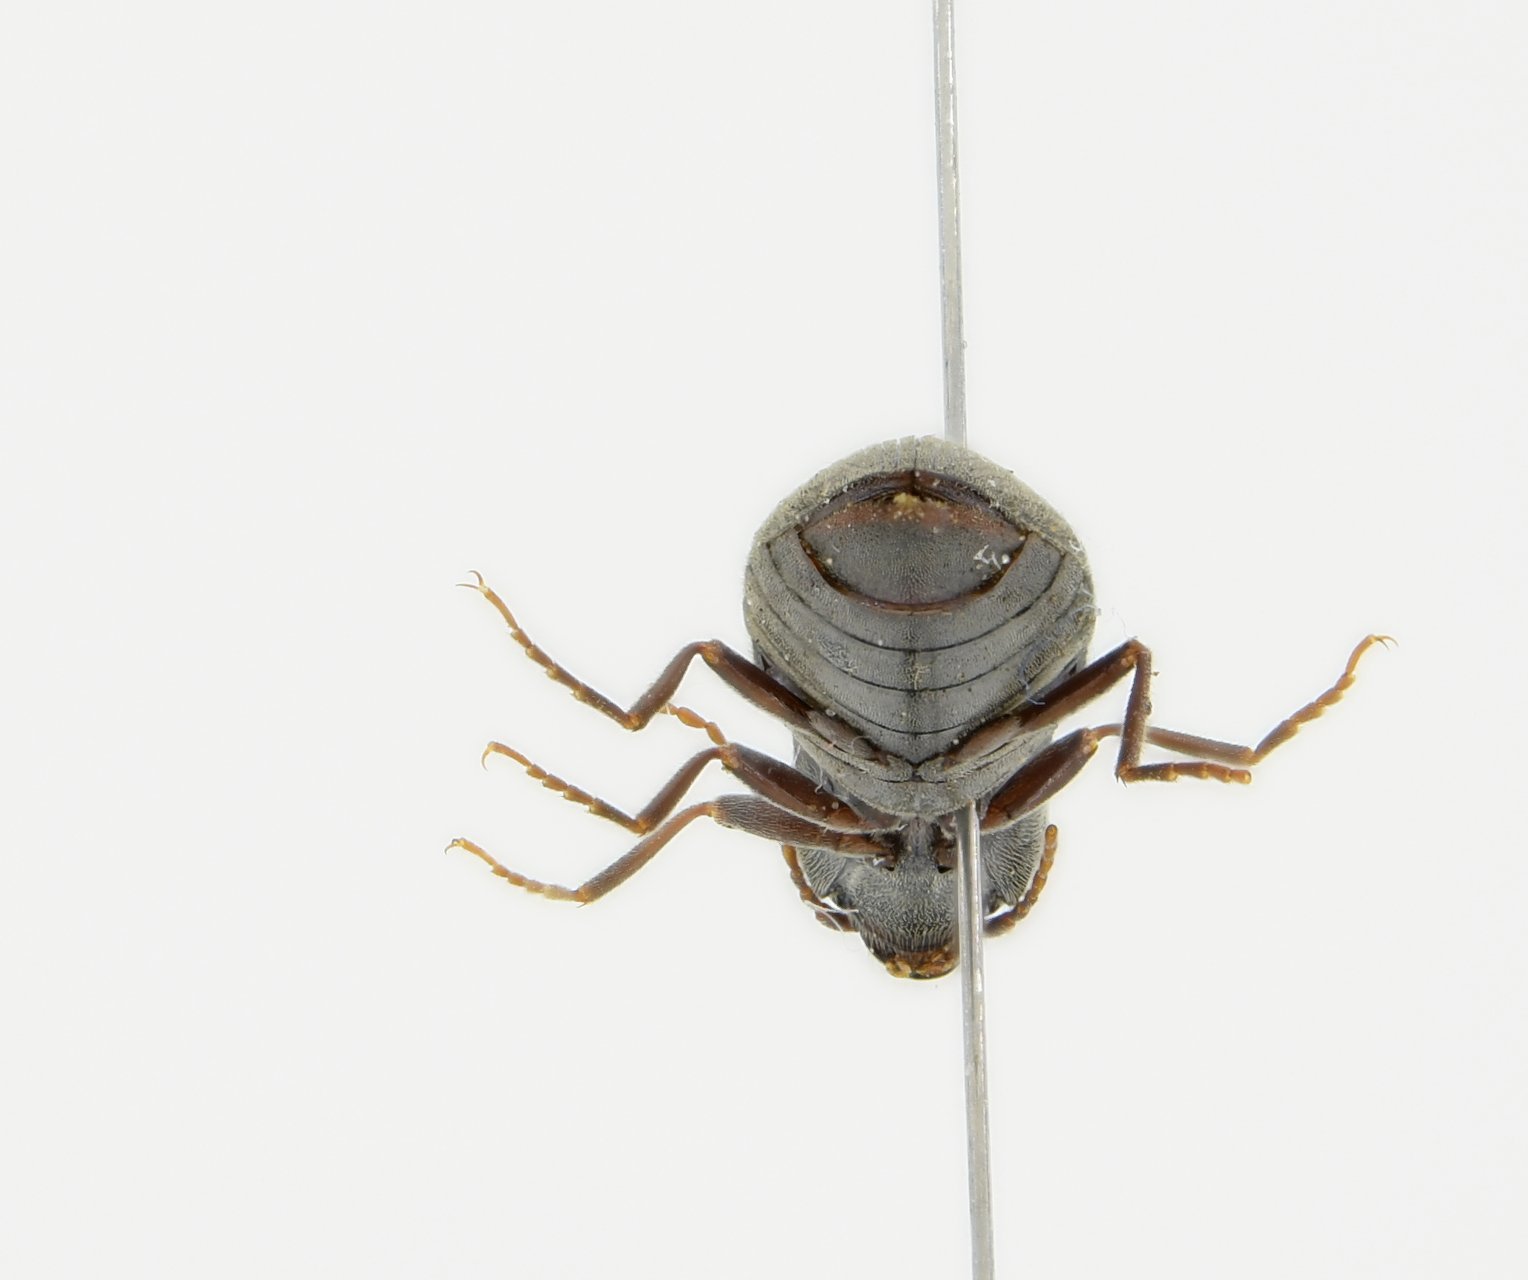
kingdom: Animalia
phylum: Arthropoda
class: Insecta
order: Coleoptera
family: Elateridae
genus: Agriotes
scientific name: Agriotes pilosellus
